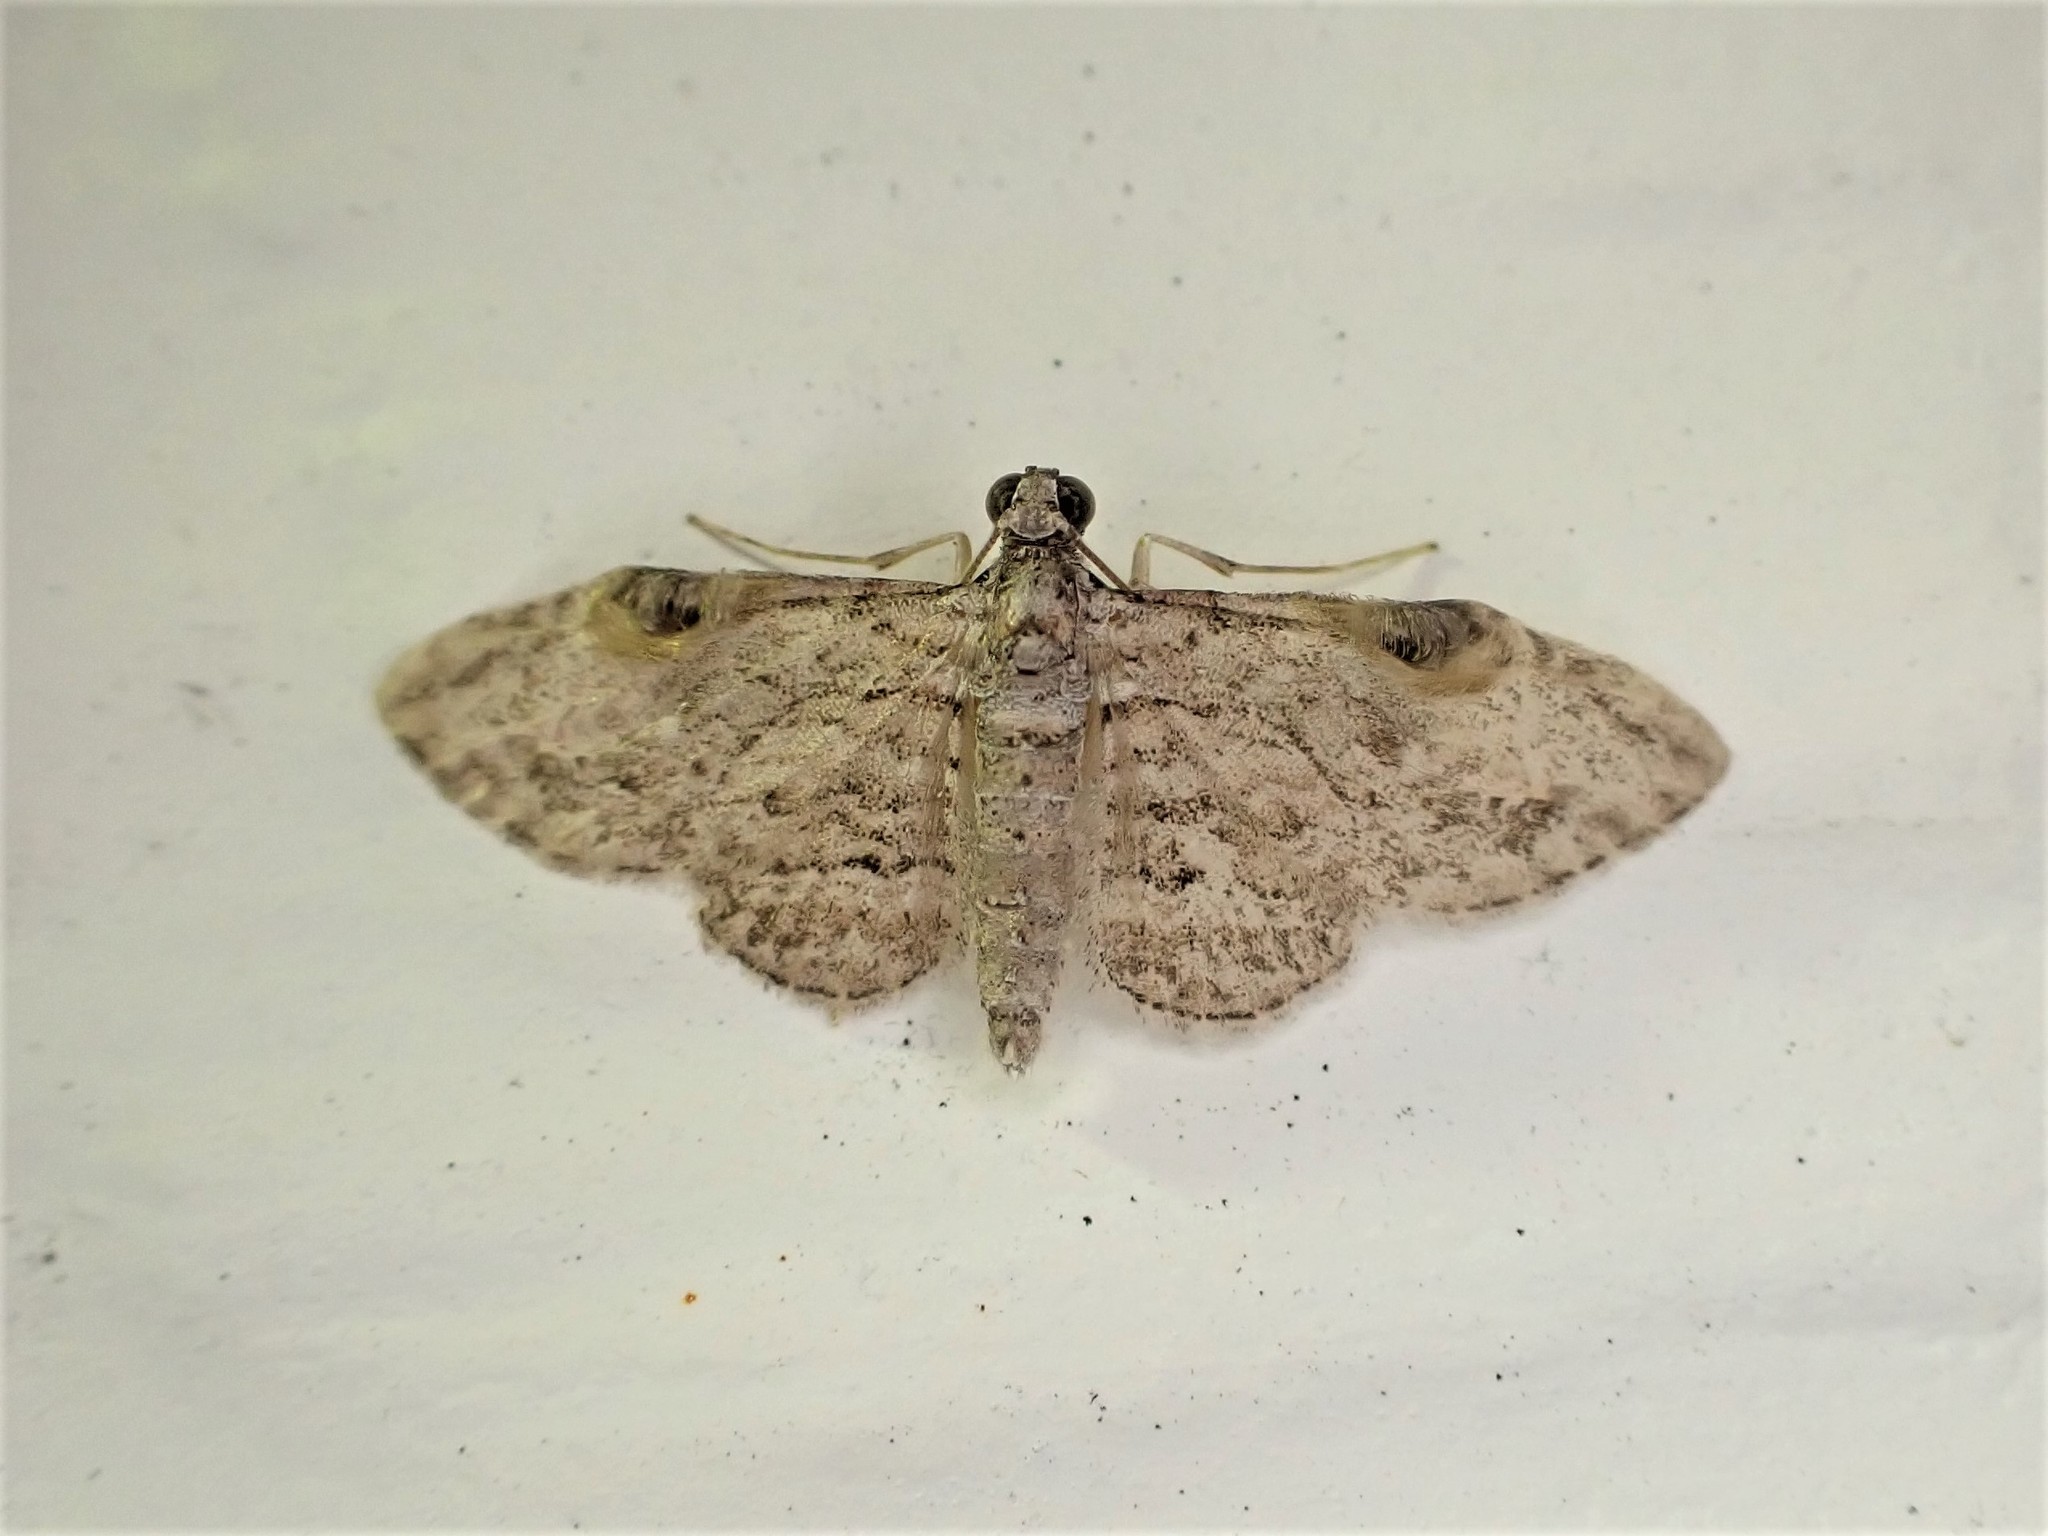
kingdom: Animalia
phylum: Arthropoda
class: Insecta
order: Lepidoptera
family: Geometridae
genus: Chloroclystis
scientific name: Chloroclystis insigillata
